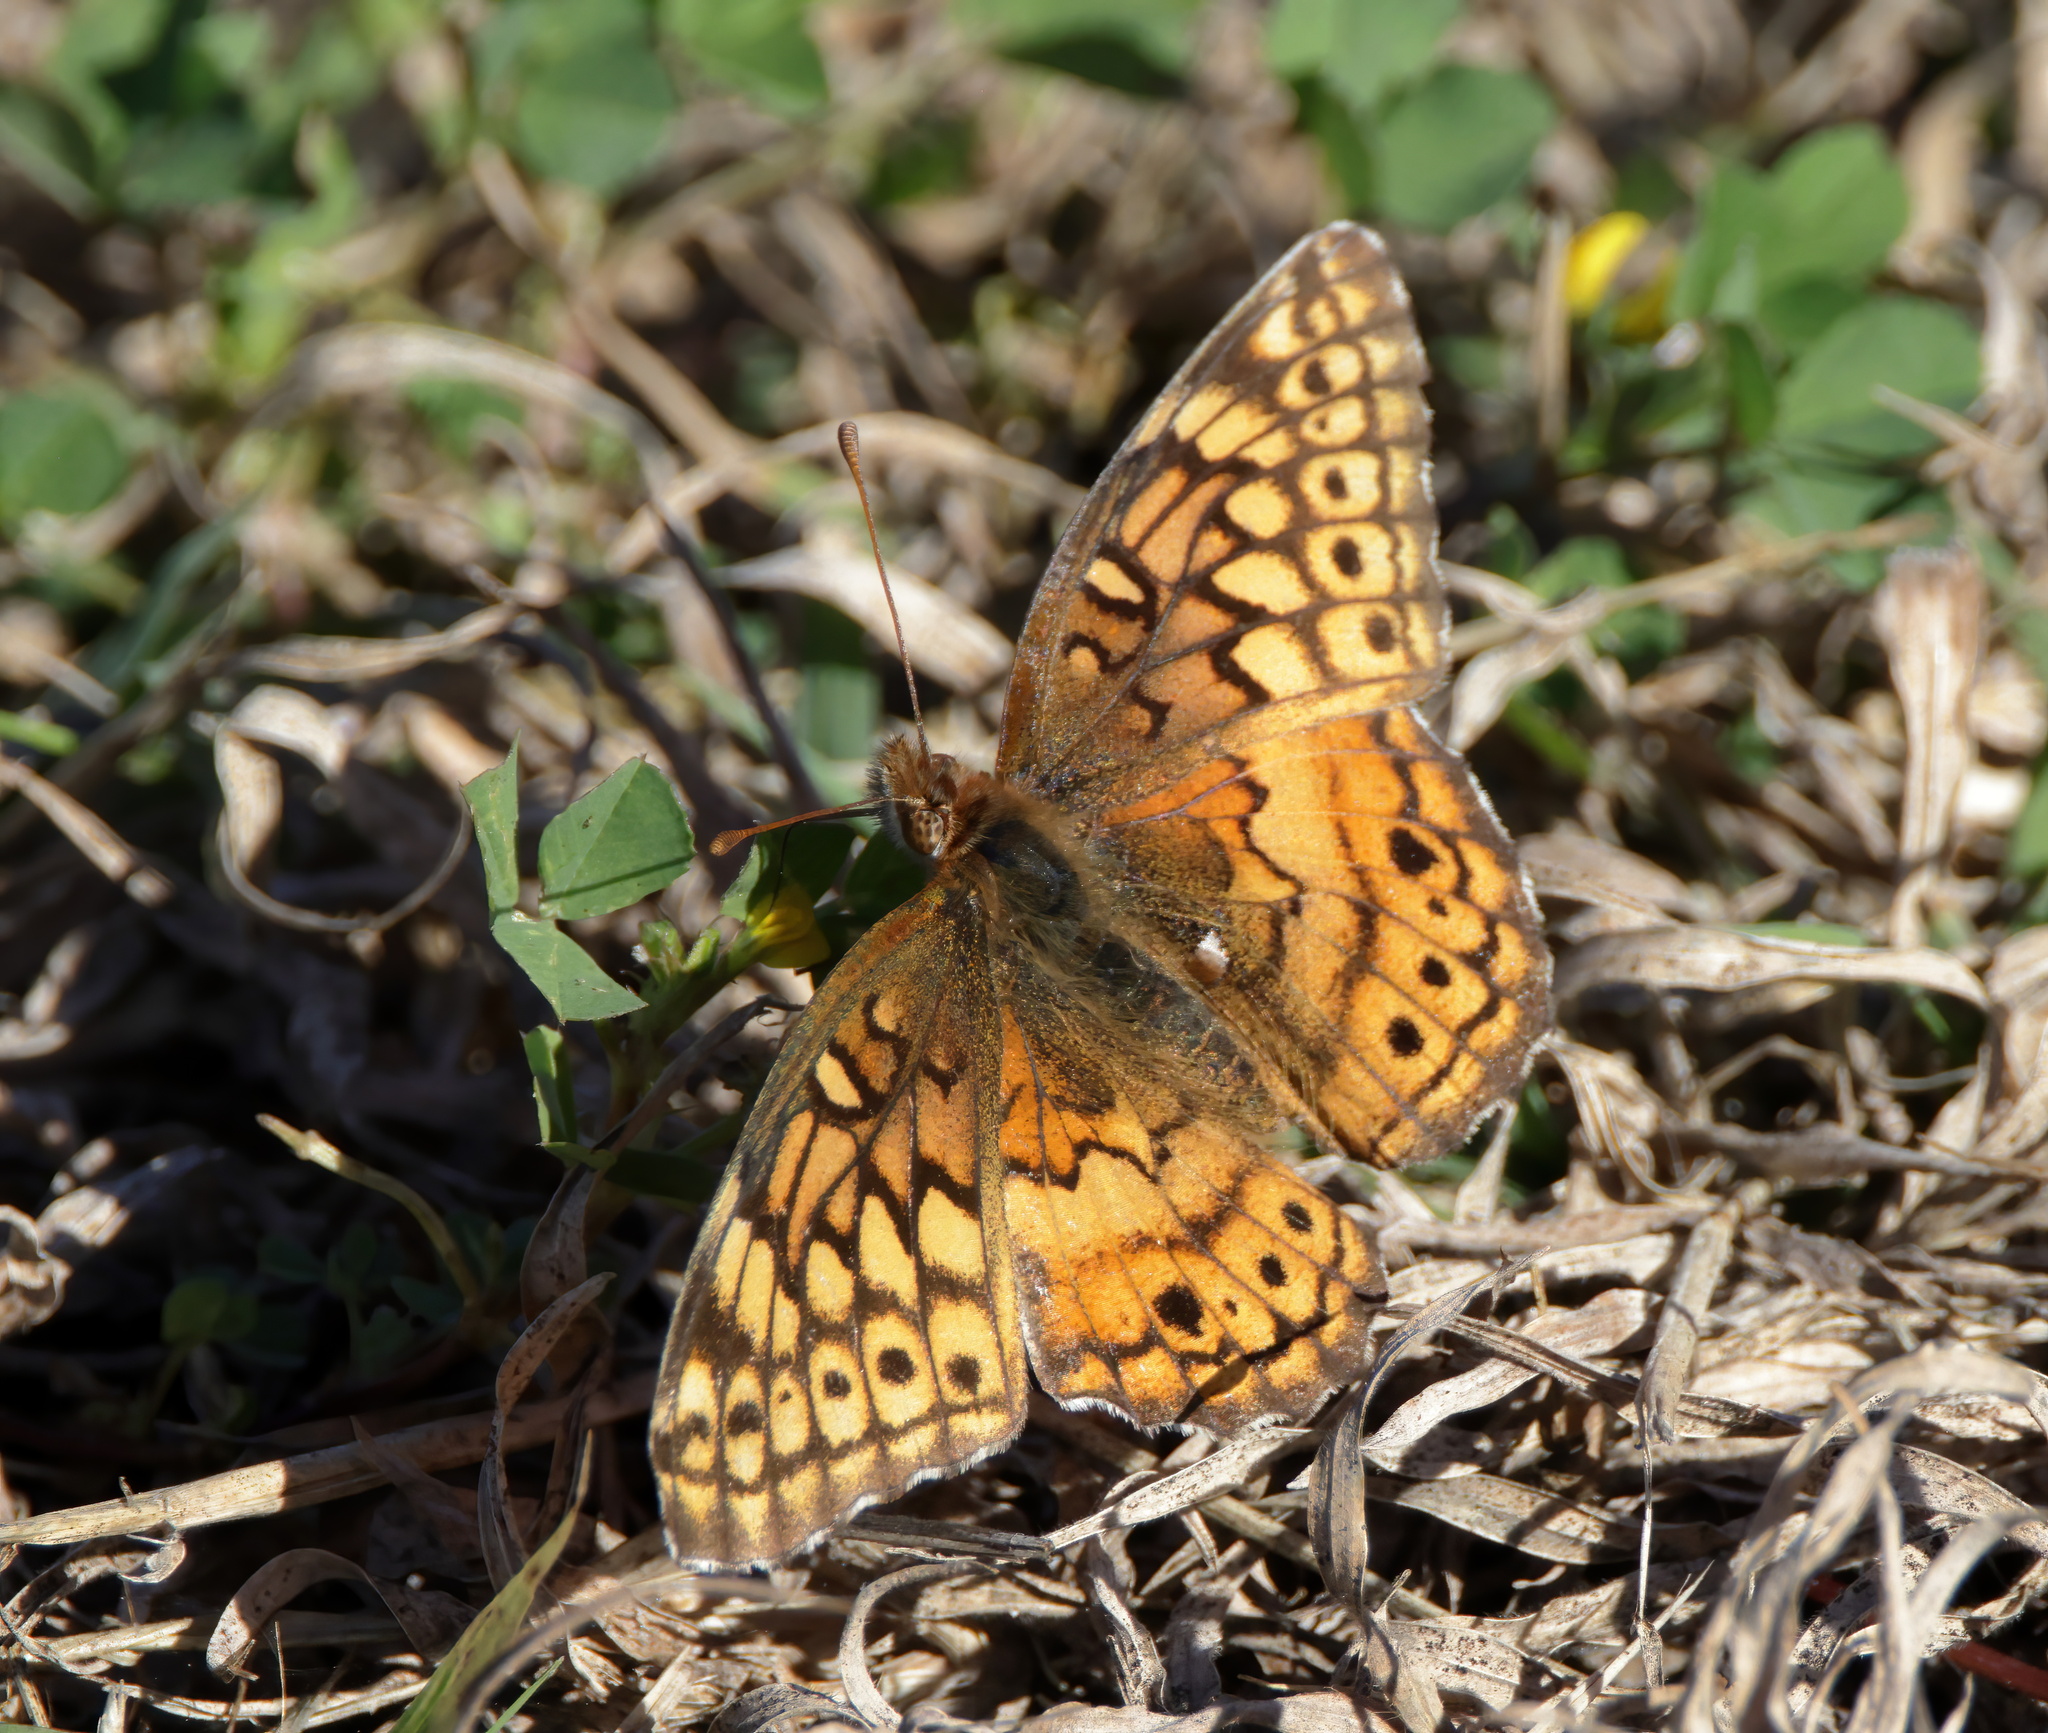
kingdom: Animalia
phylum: Arthropoda
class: Insecta
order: Lepidoptera
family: Nymphalidae
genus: Euptoieta
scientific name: Euptoieta claudia
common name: Variegated fritillary
